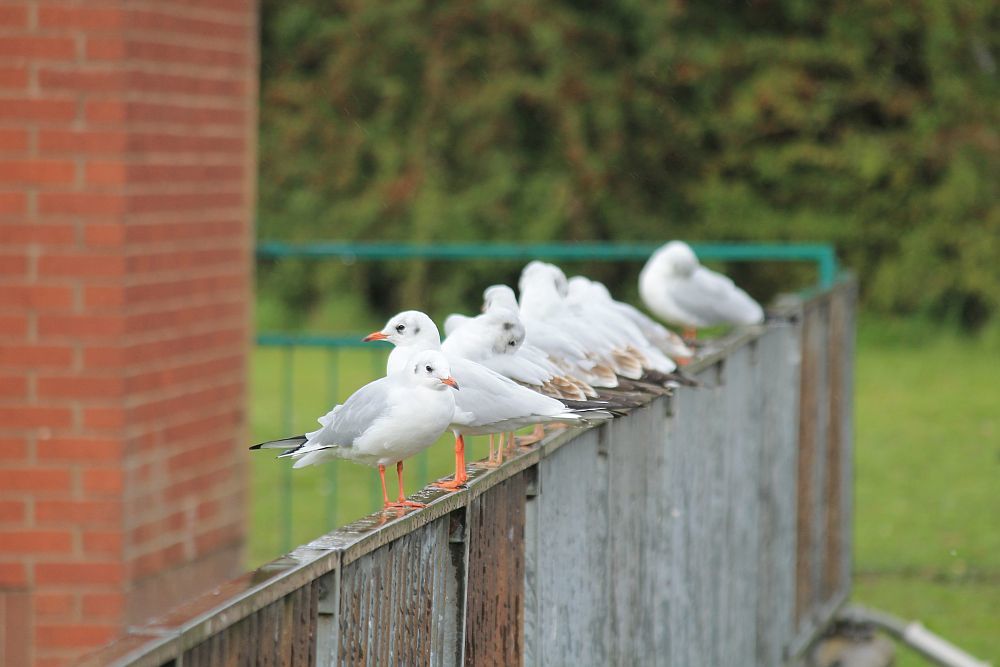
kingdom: Animalia
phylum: Chordata
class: Aves
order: Charadriiformes
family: Laridae
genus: Chroicocephalus
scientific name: Chroicocephalus ridibundus
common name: Black-headed gull
